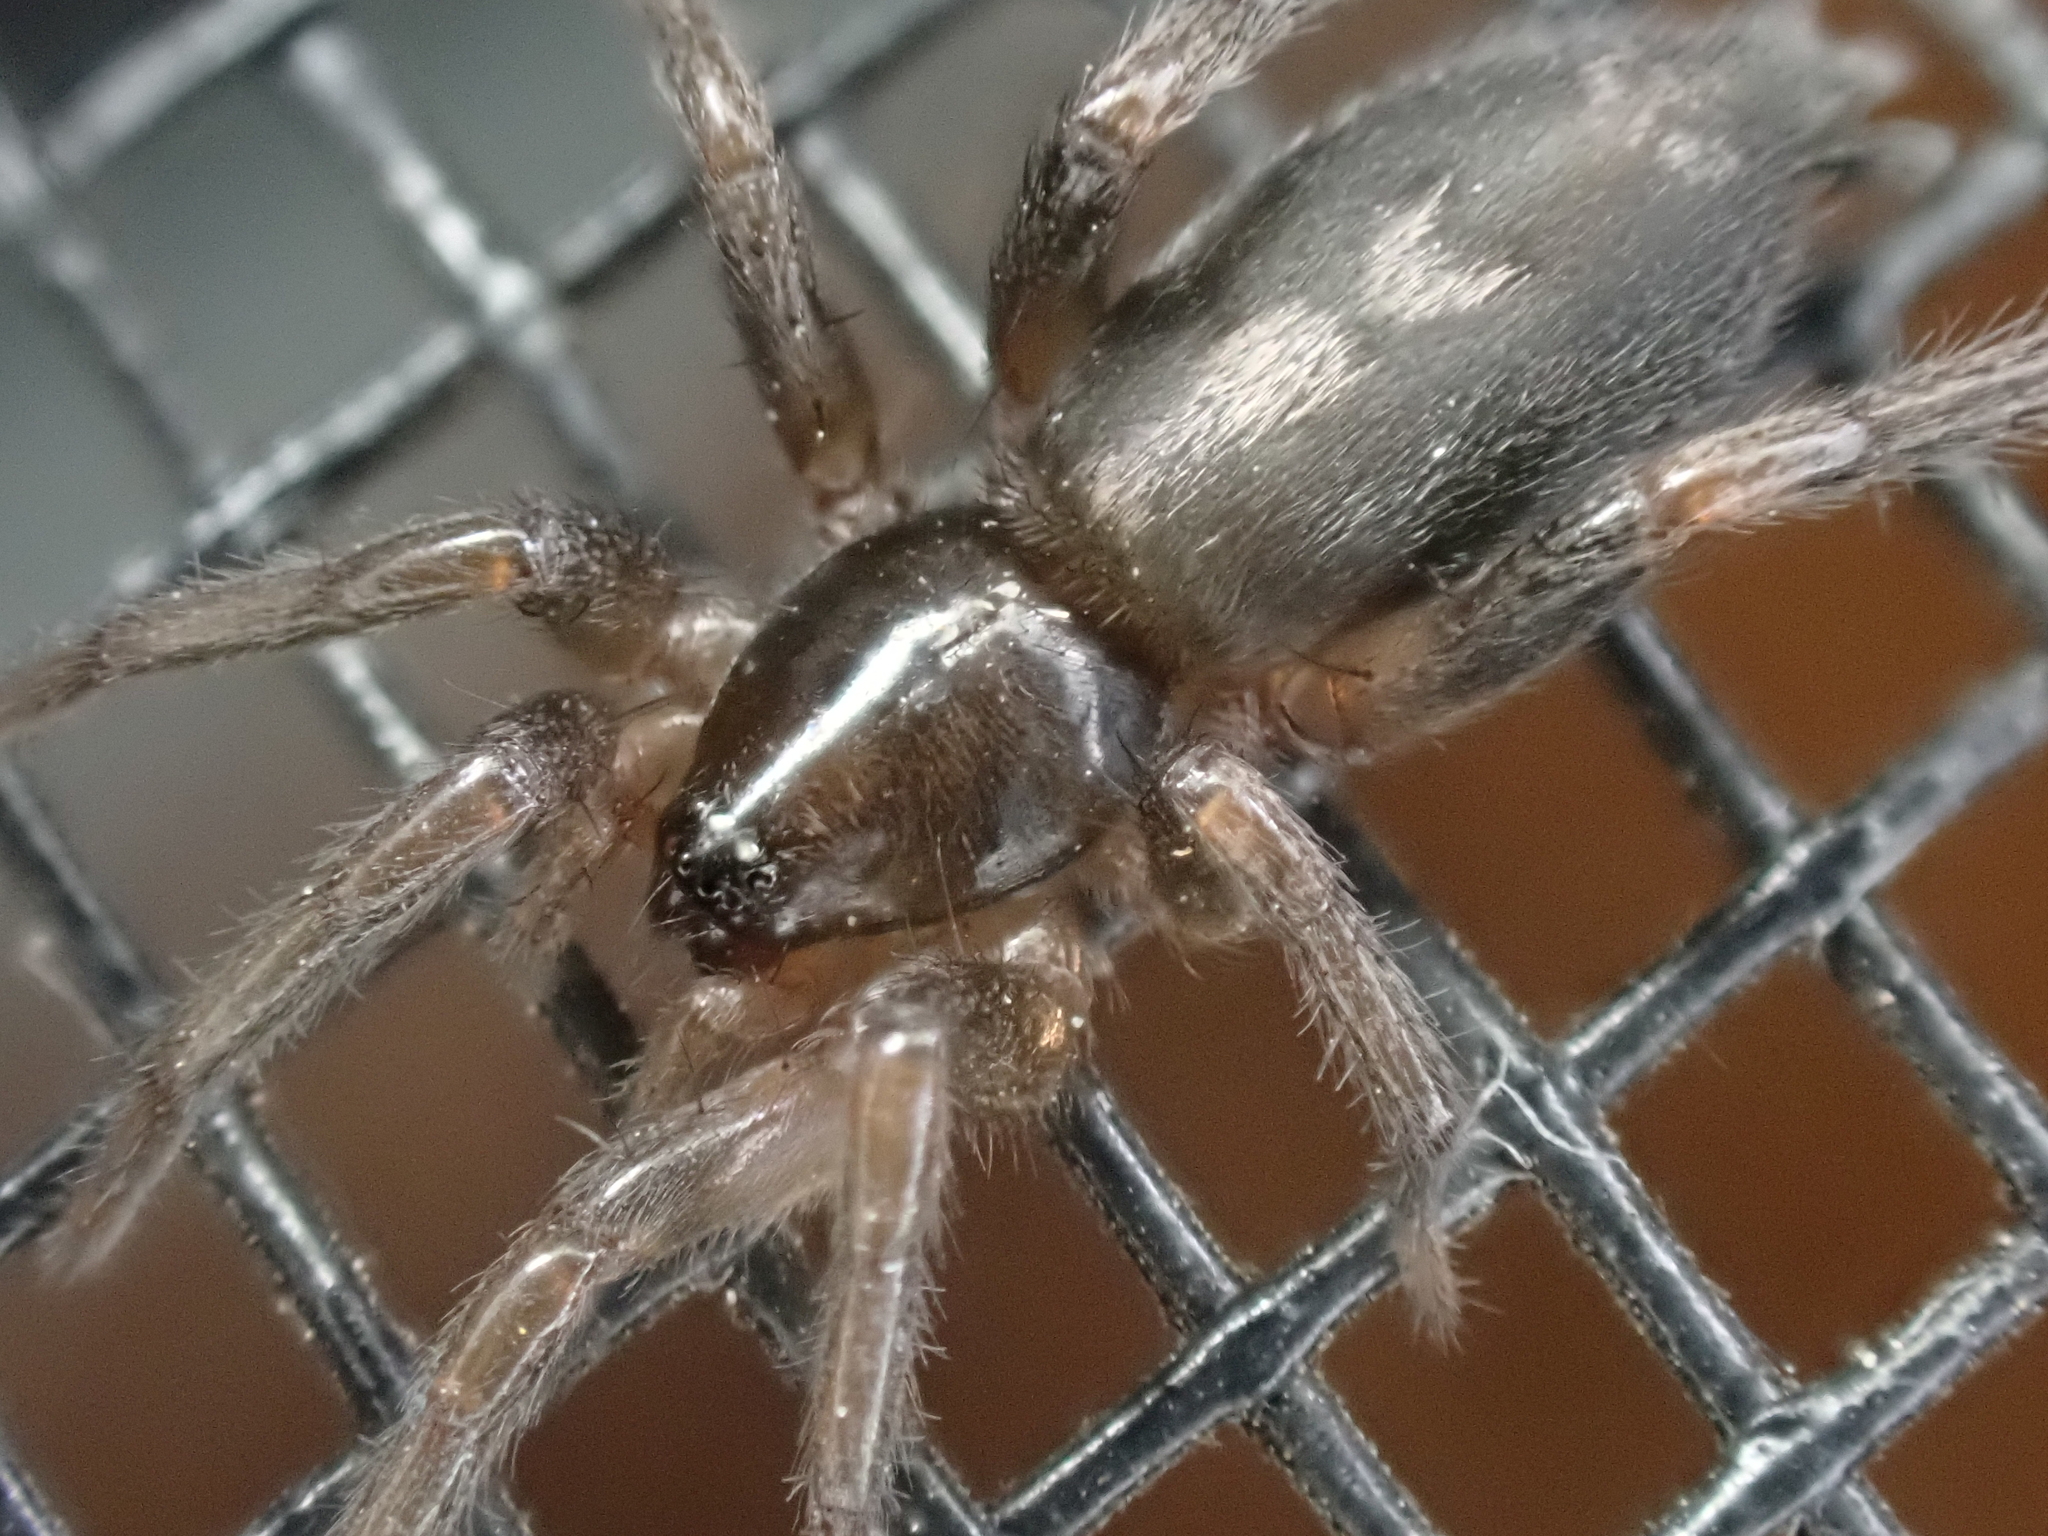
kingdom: Animalia
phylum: Arthropoda
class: Arachnida
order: Araneae
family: Gnaphosidae
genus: Herpyllus
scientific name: Herpyllus ecclesiasticus
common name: Eastern parson spider
